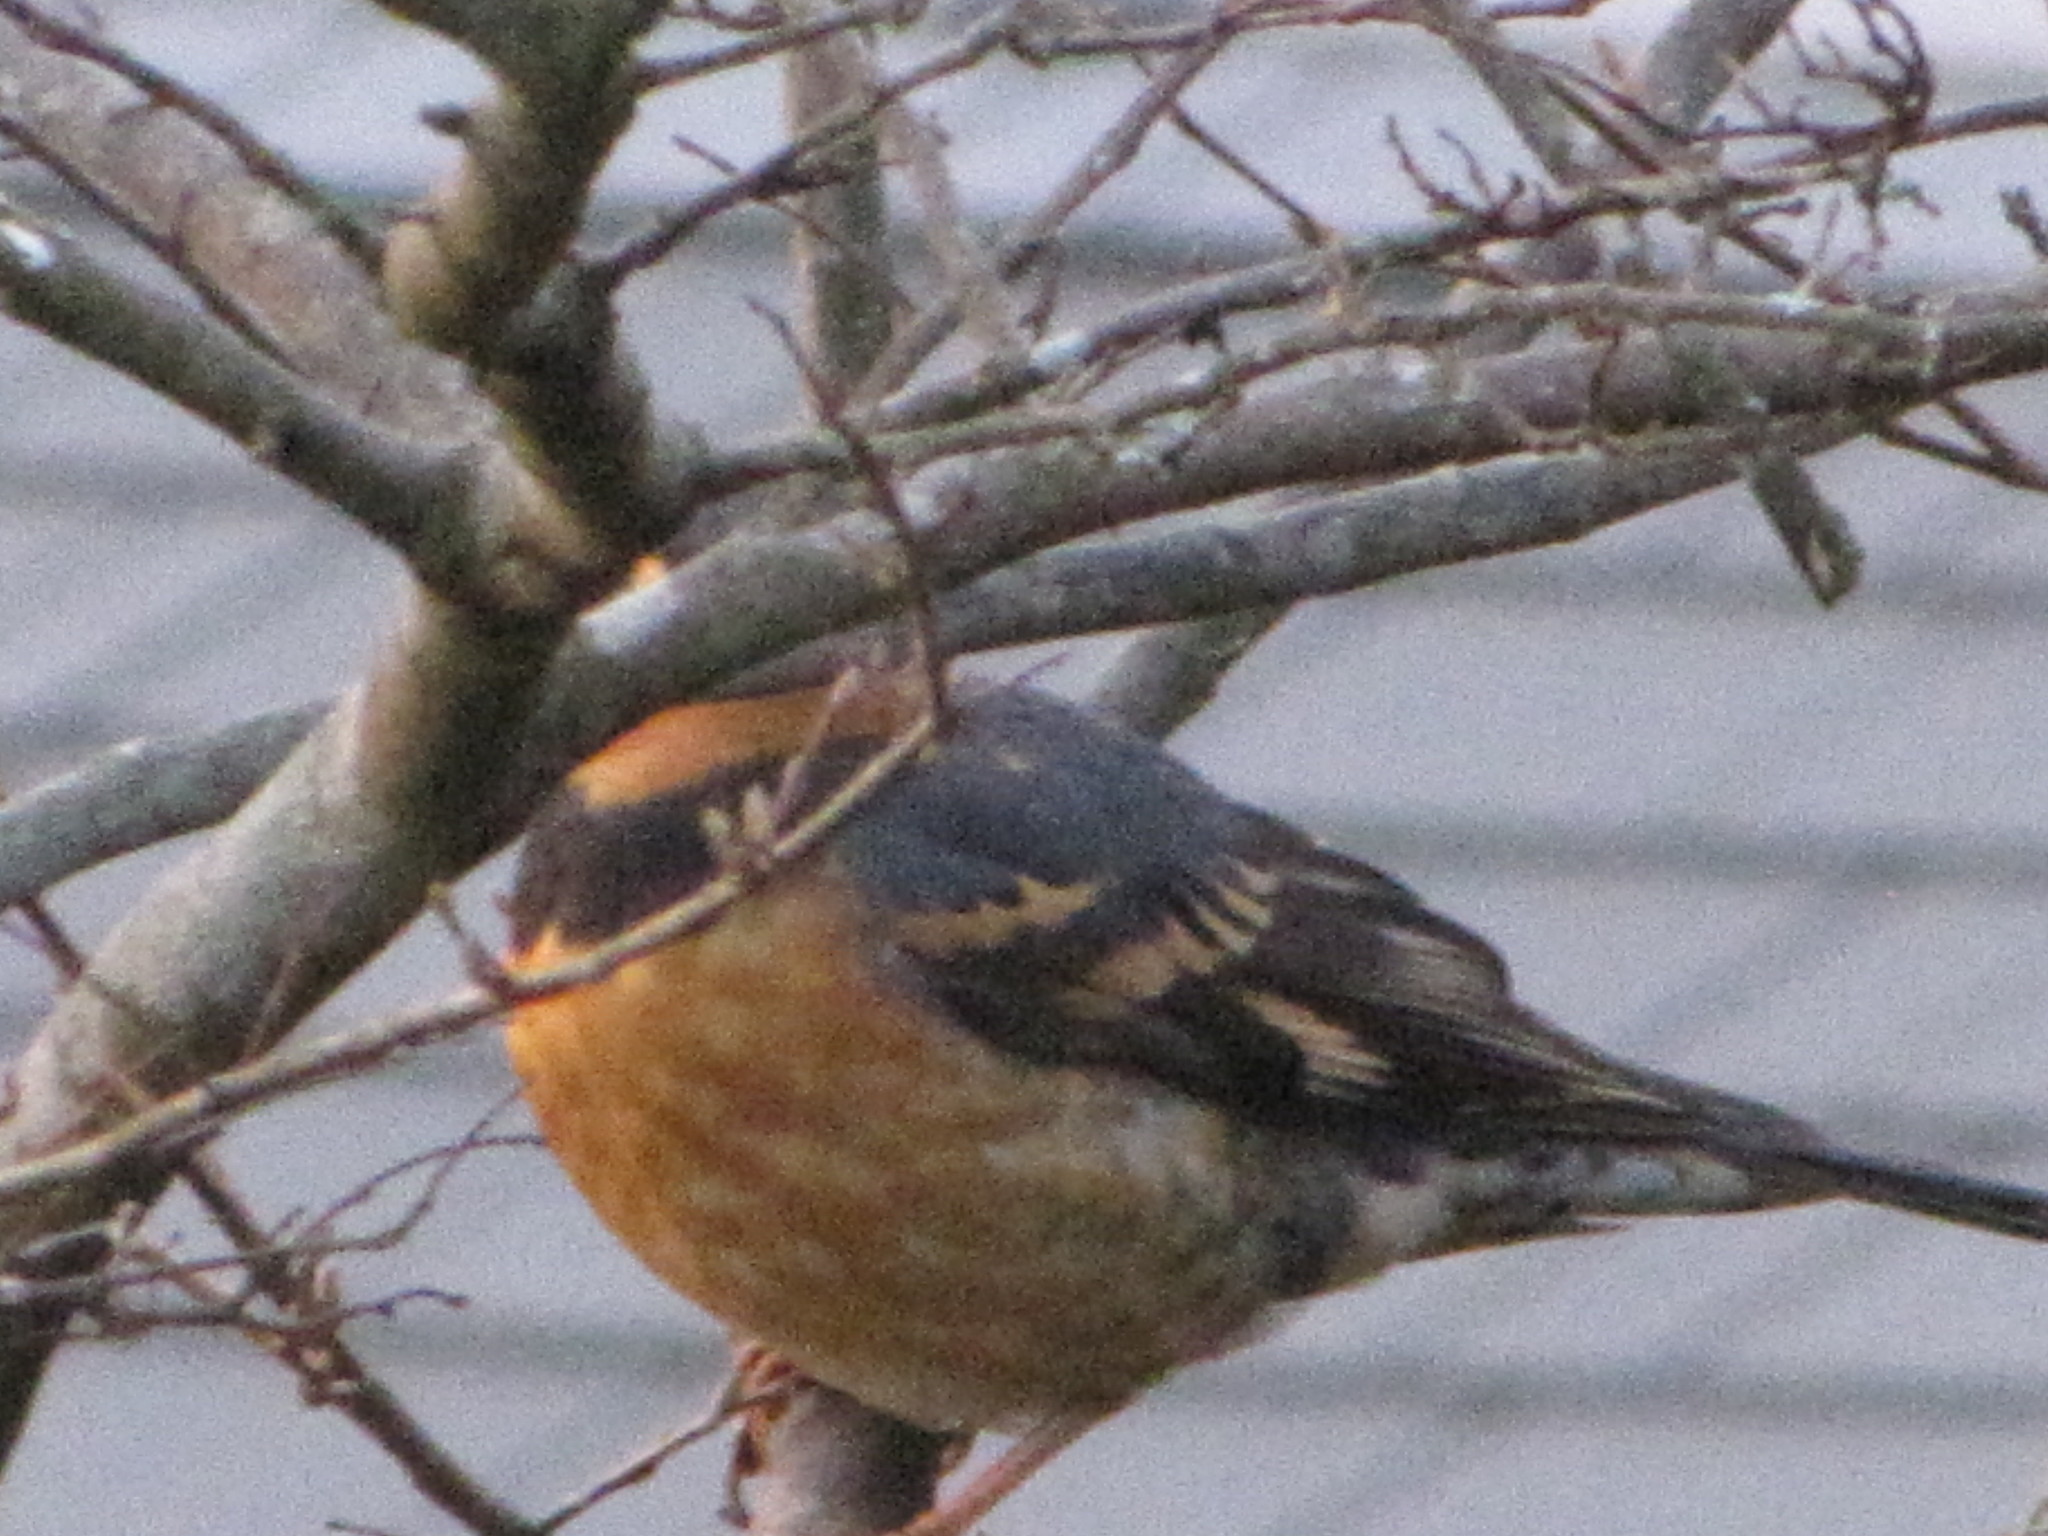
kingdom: Animalia
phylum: Chordata
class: Aves
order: Passeriformes
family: Turdidae
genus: Ixoreus
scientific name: Ixoreus naevius
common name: Varied thrush
